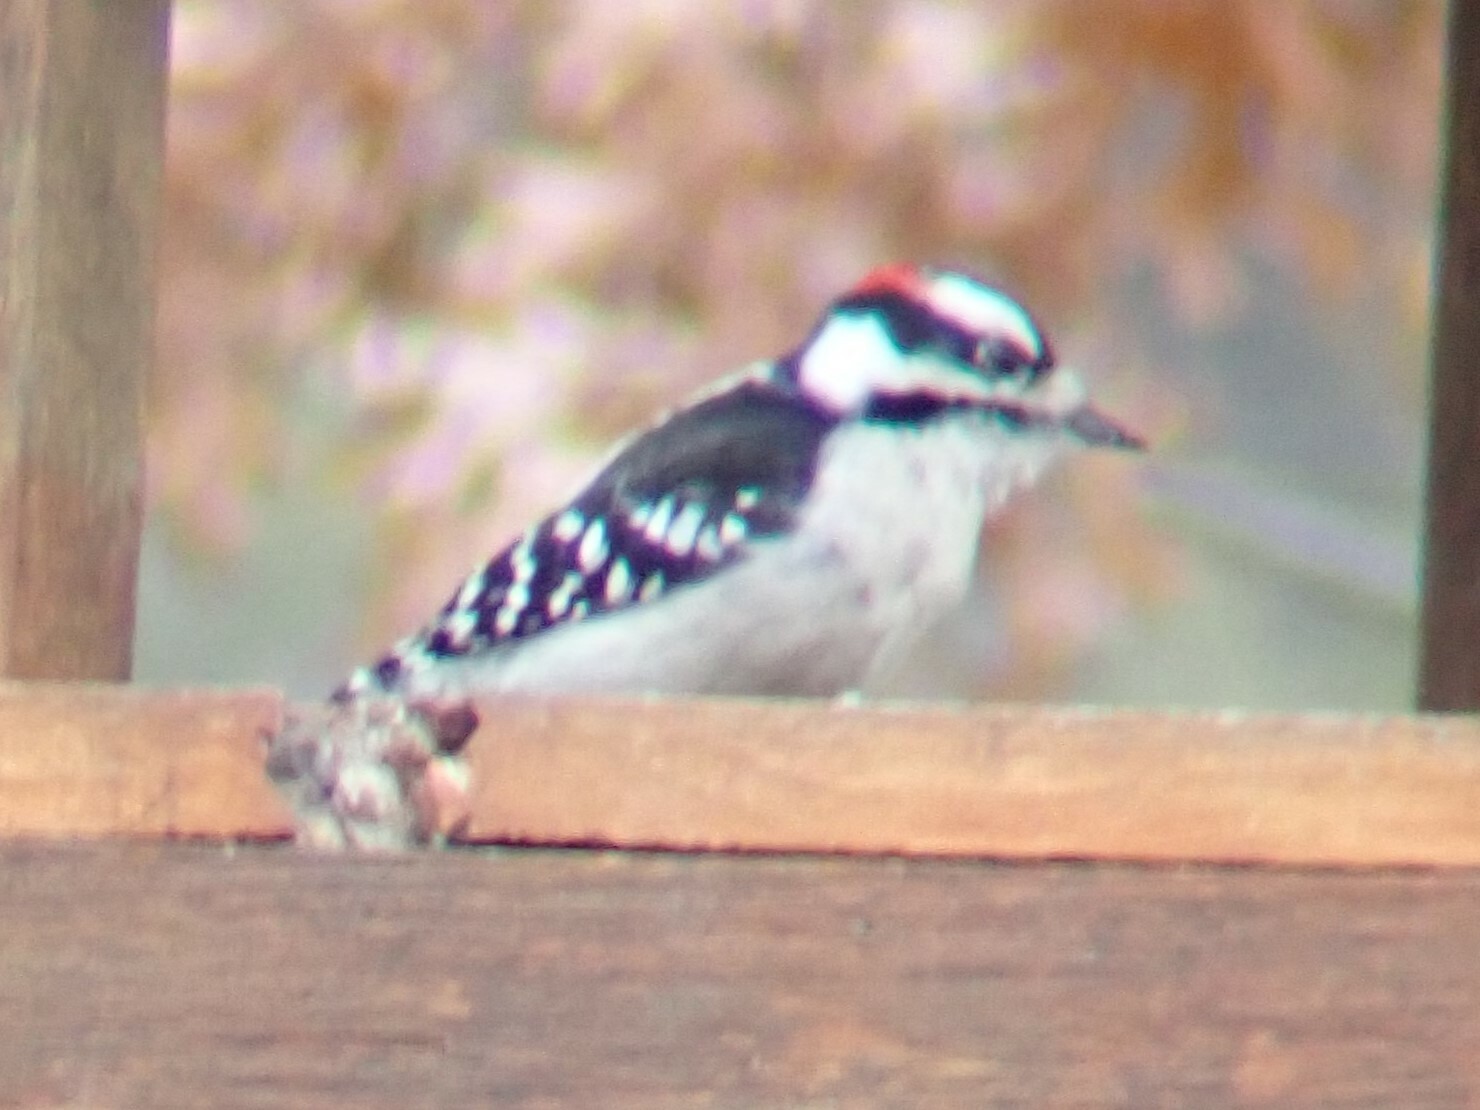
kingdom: Animalia
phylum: Chordata
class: Aves
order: Piciformes
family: Picidae
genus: Dryobates
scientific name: Dryobates pubescens
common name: Downy woodpecker
